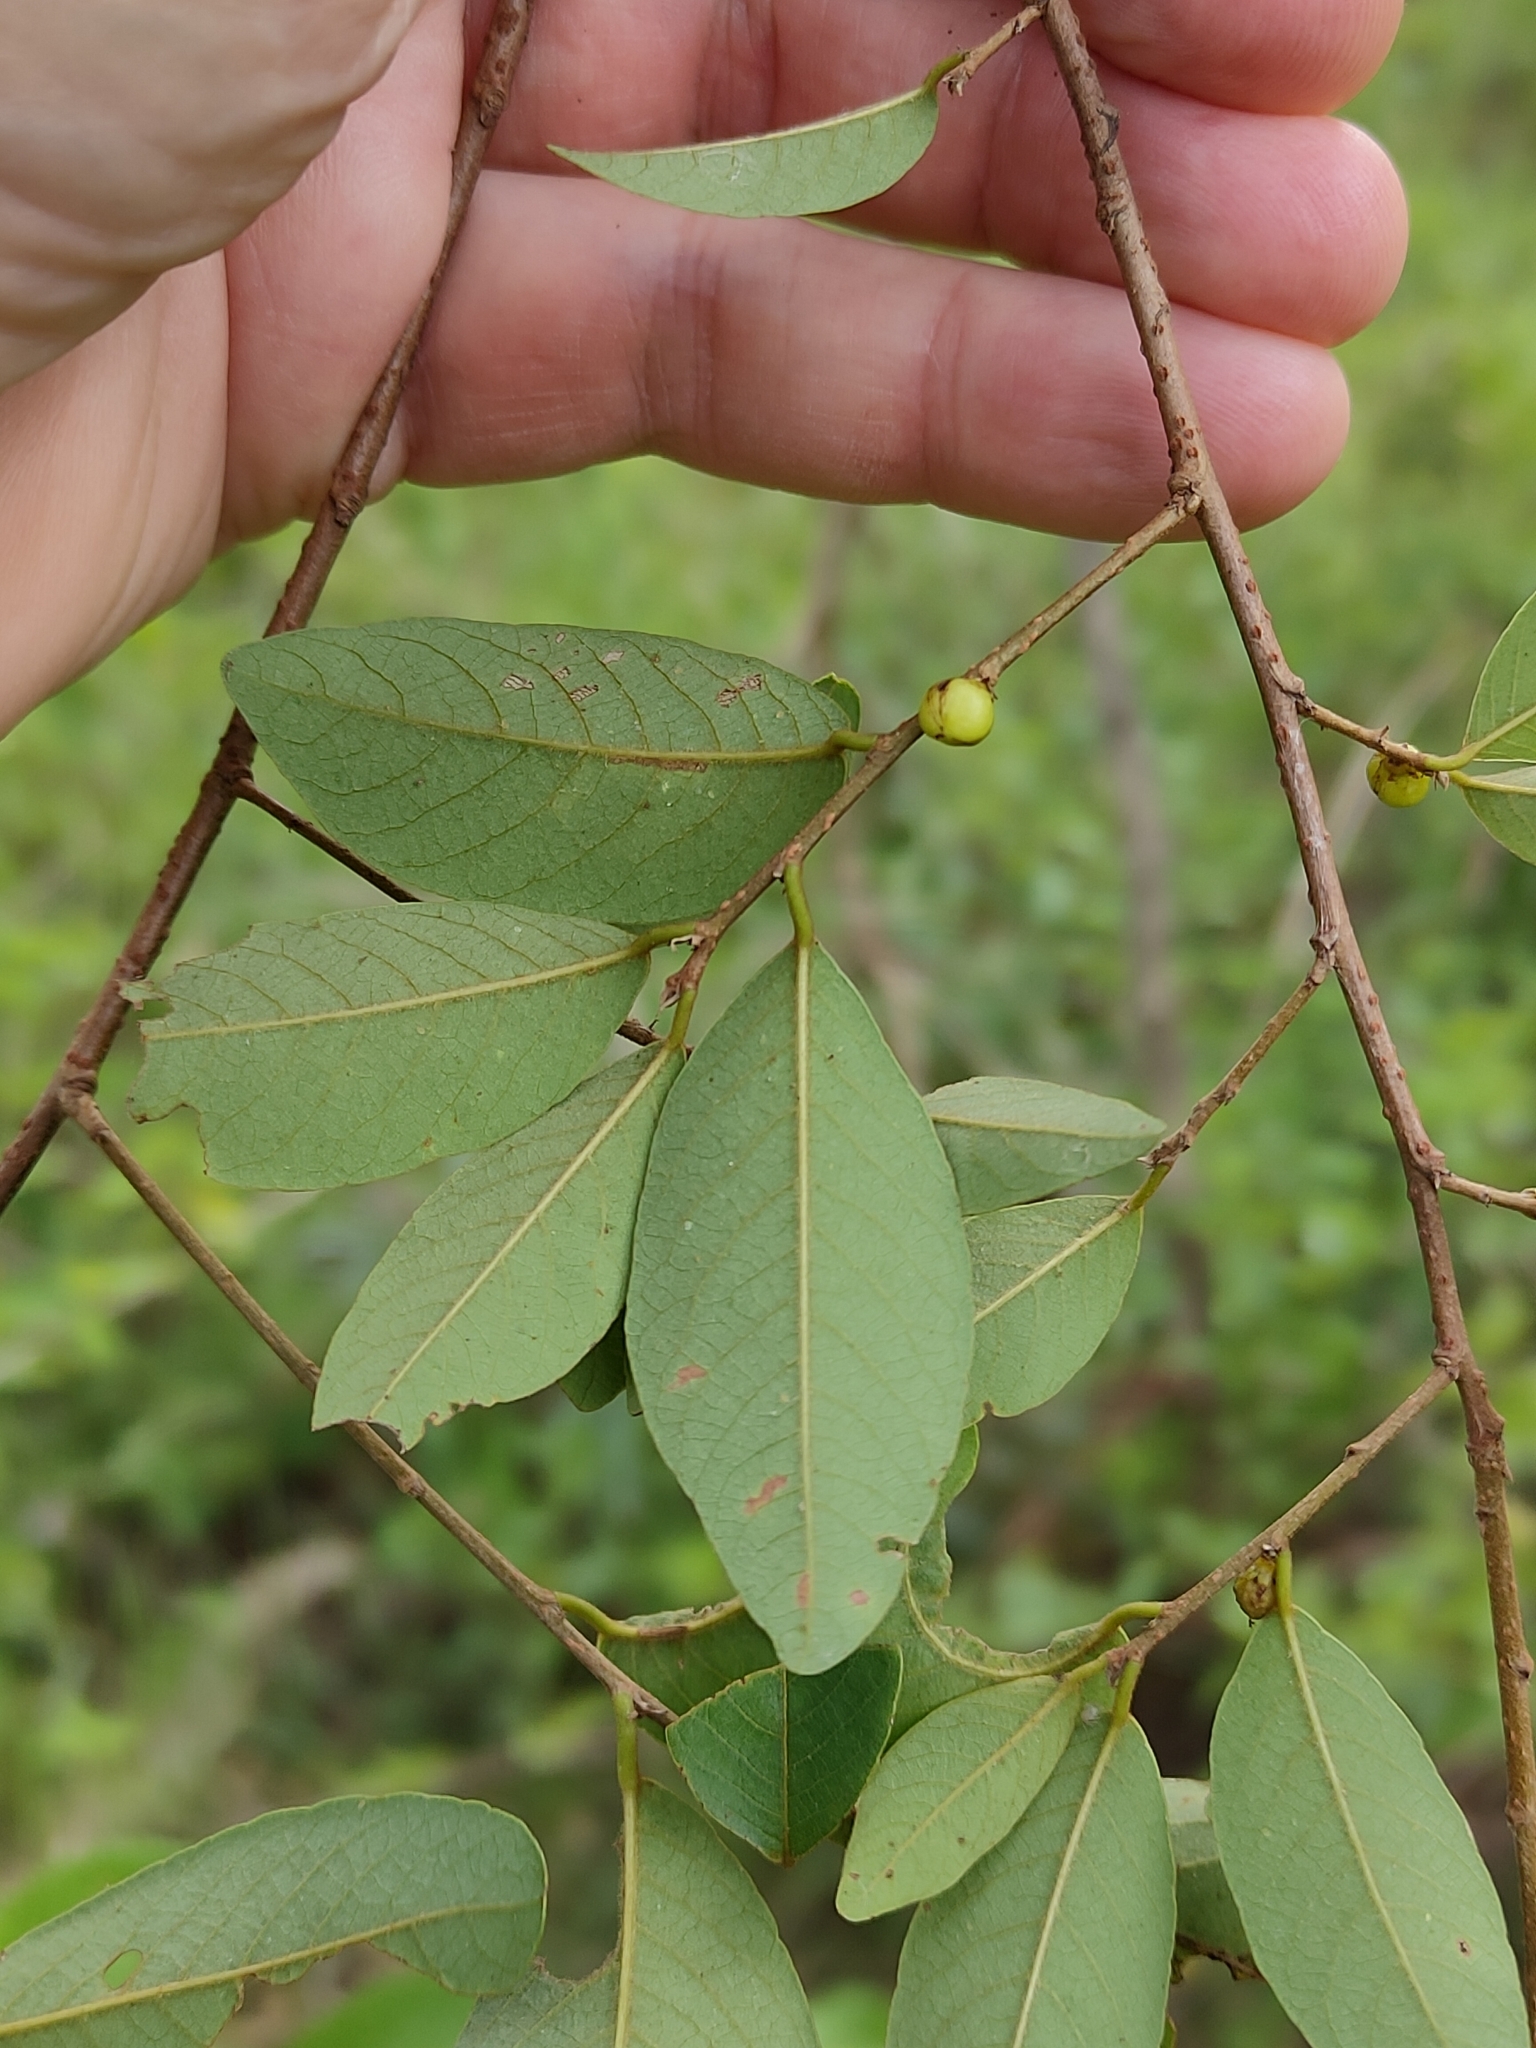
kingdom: Plantae
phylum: Tracheophyta
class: Magnoliopsida
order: Malpighiales
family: Phyllanthaceae
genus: Bridelia
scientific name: Bridelia leichhardtii
